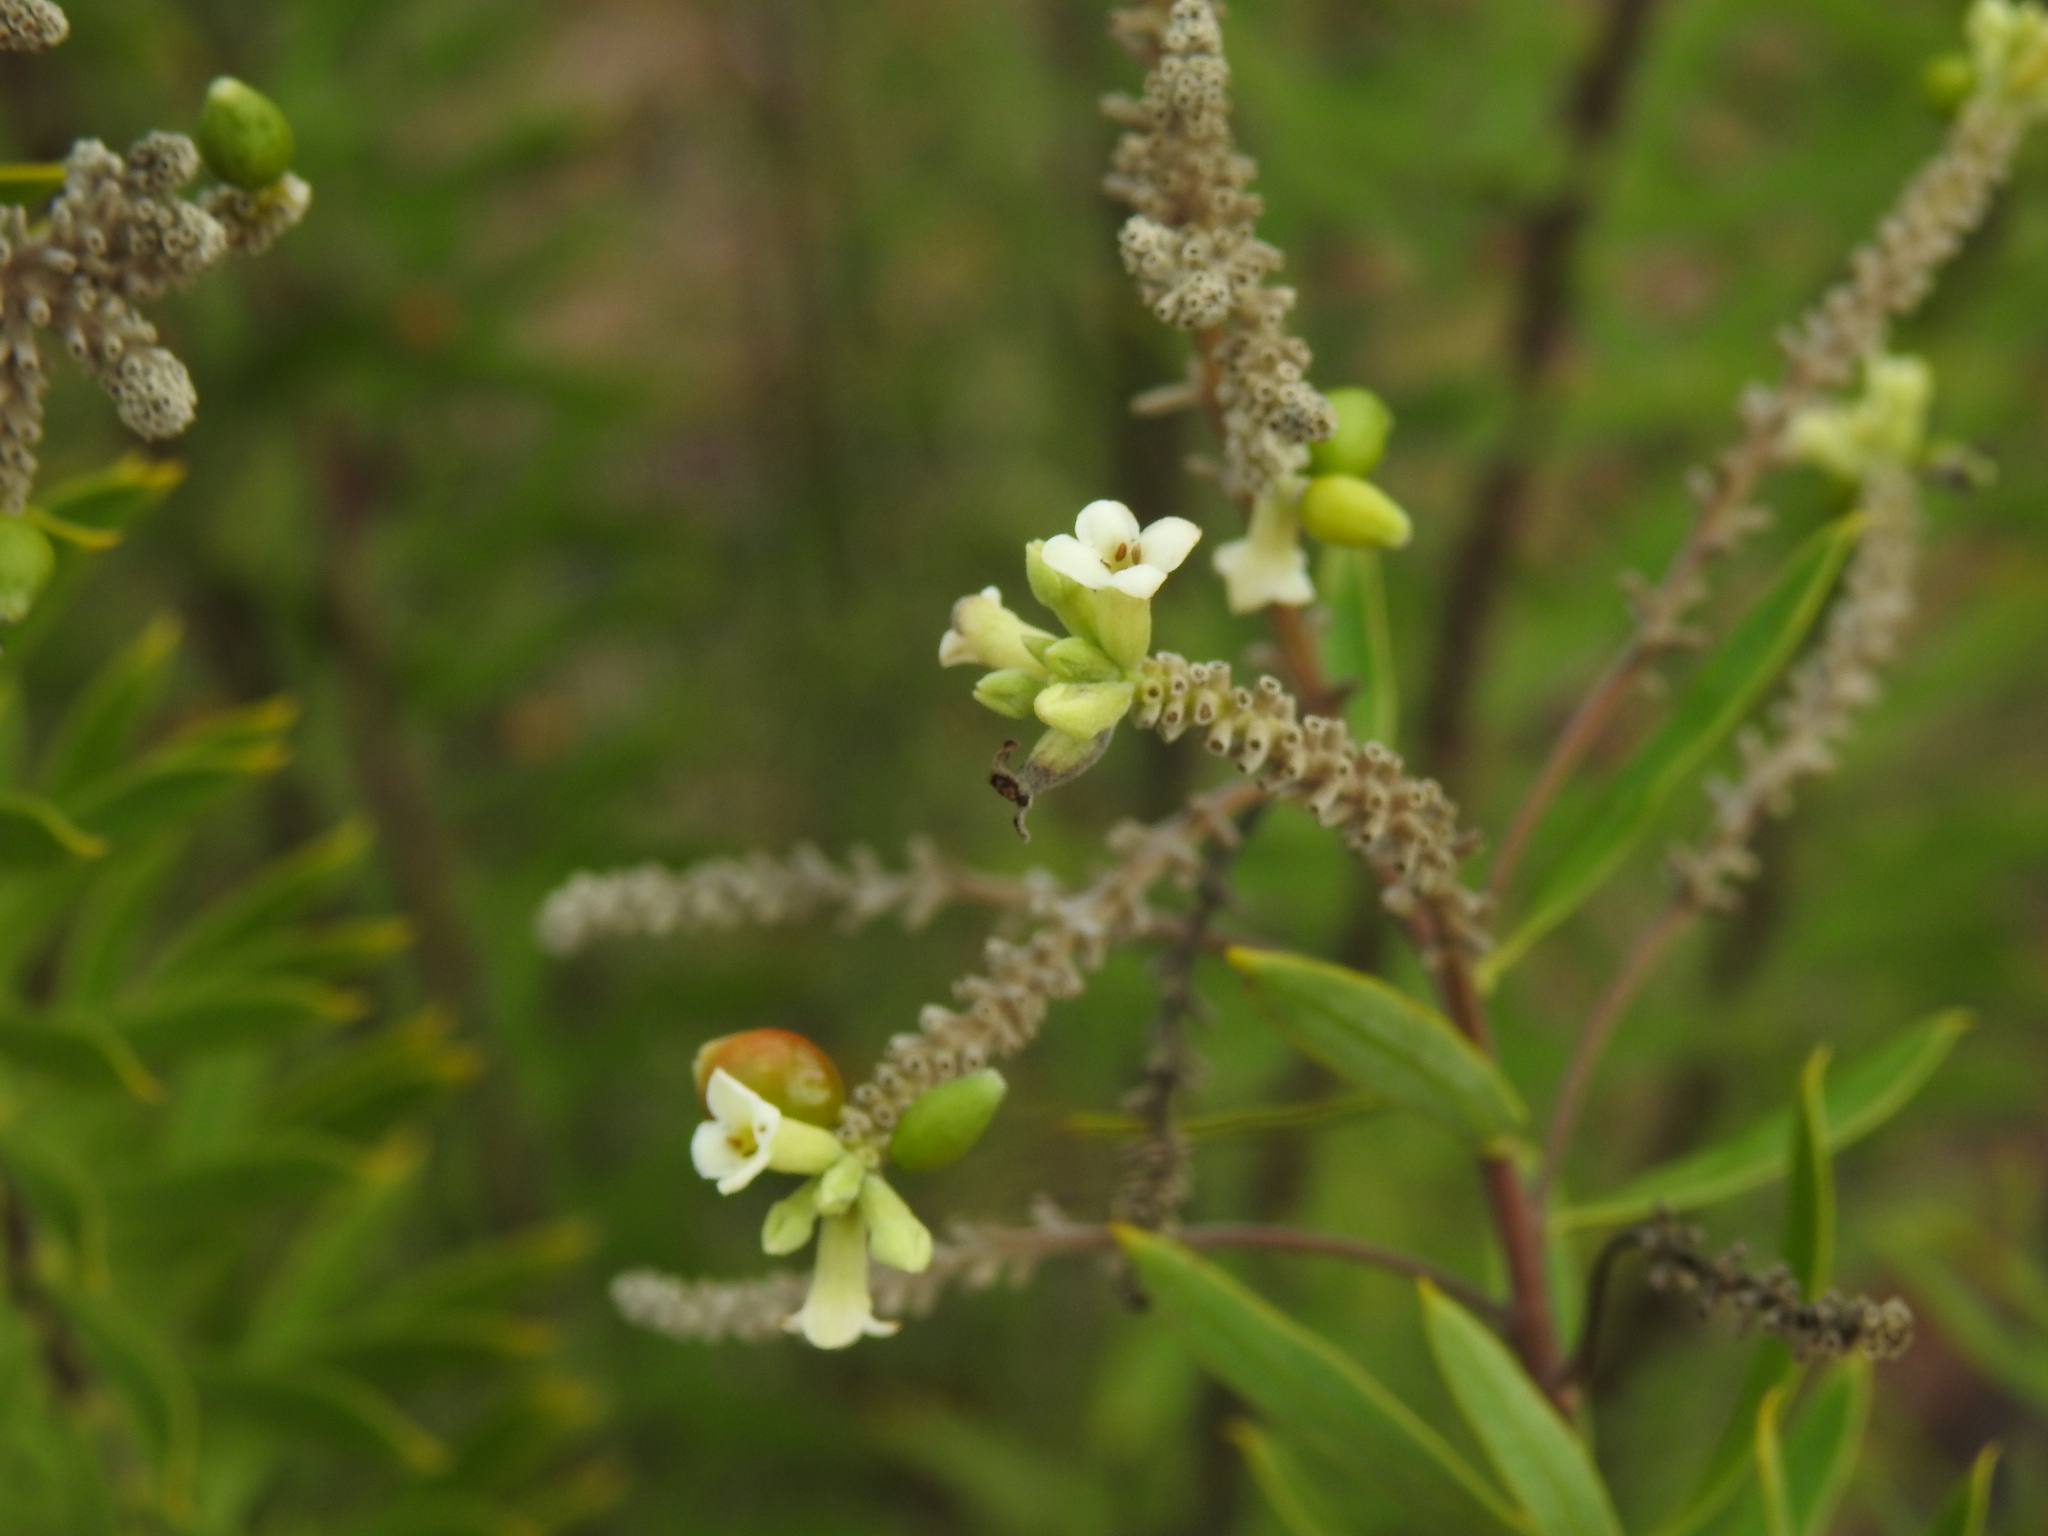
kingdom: Plantae
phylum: Tracheophyta
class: Magnoliopsida
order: Malvales
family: Thymelaeaceae
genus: Daphne
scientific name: Daphne gnidium
